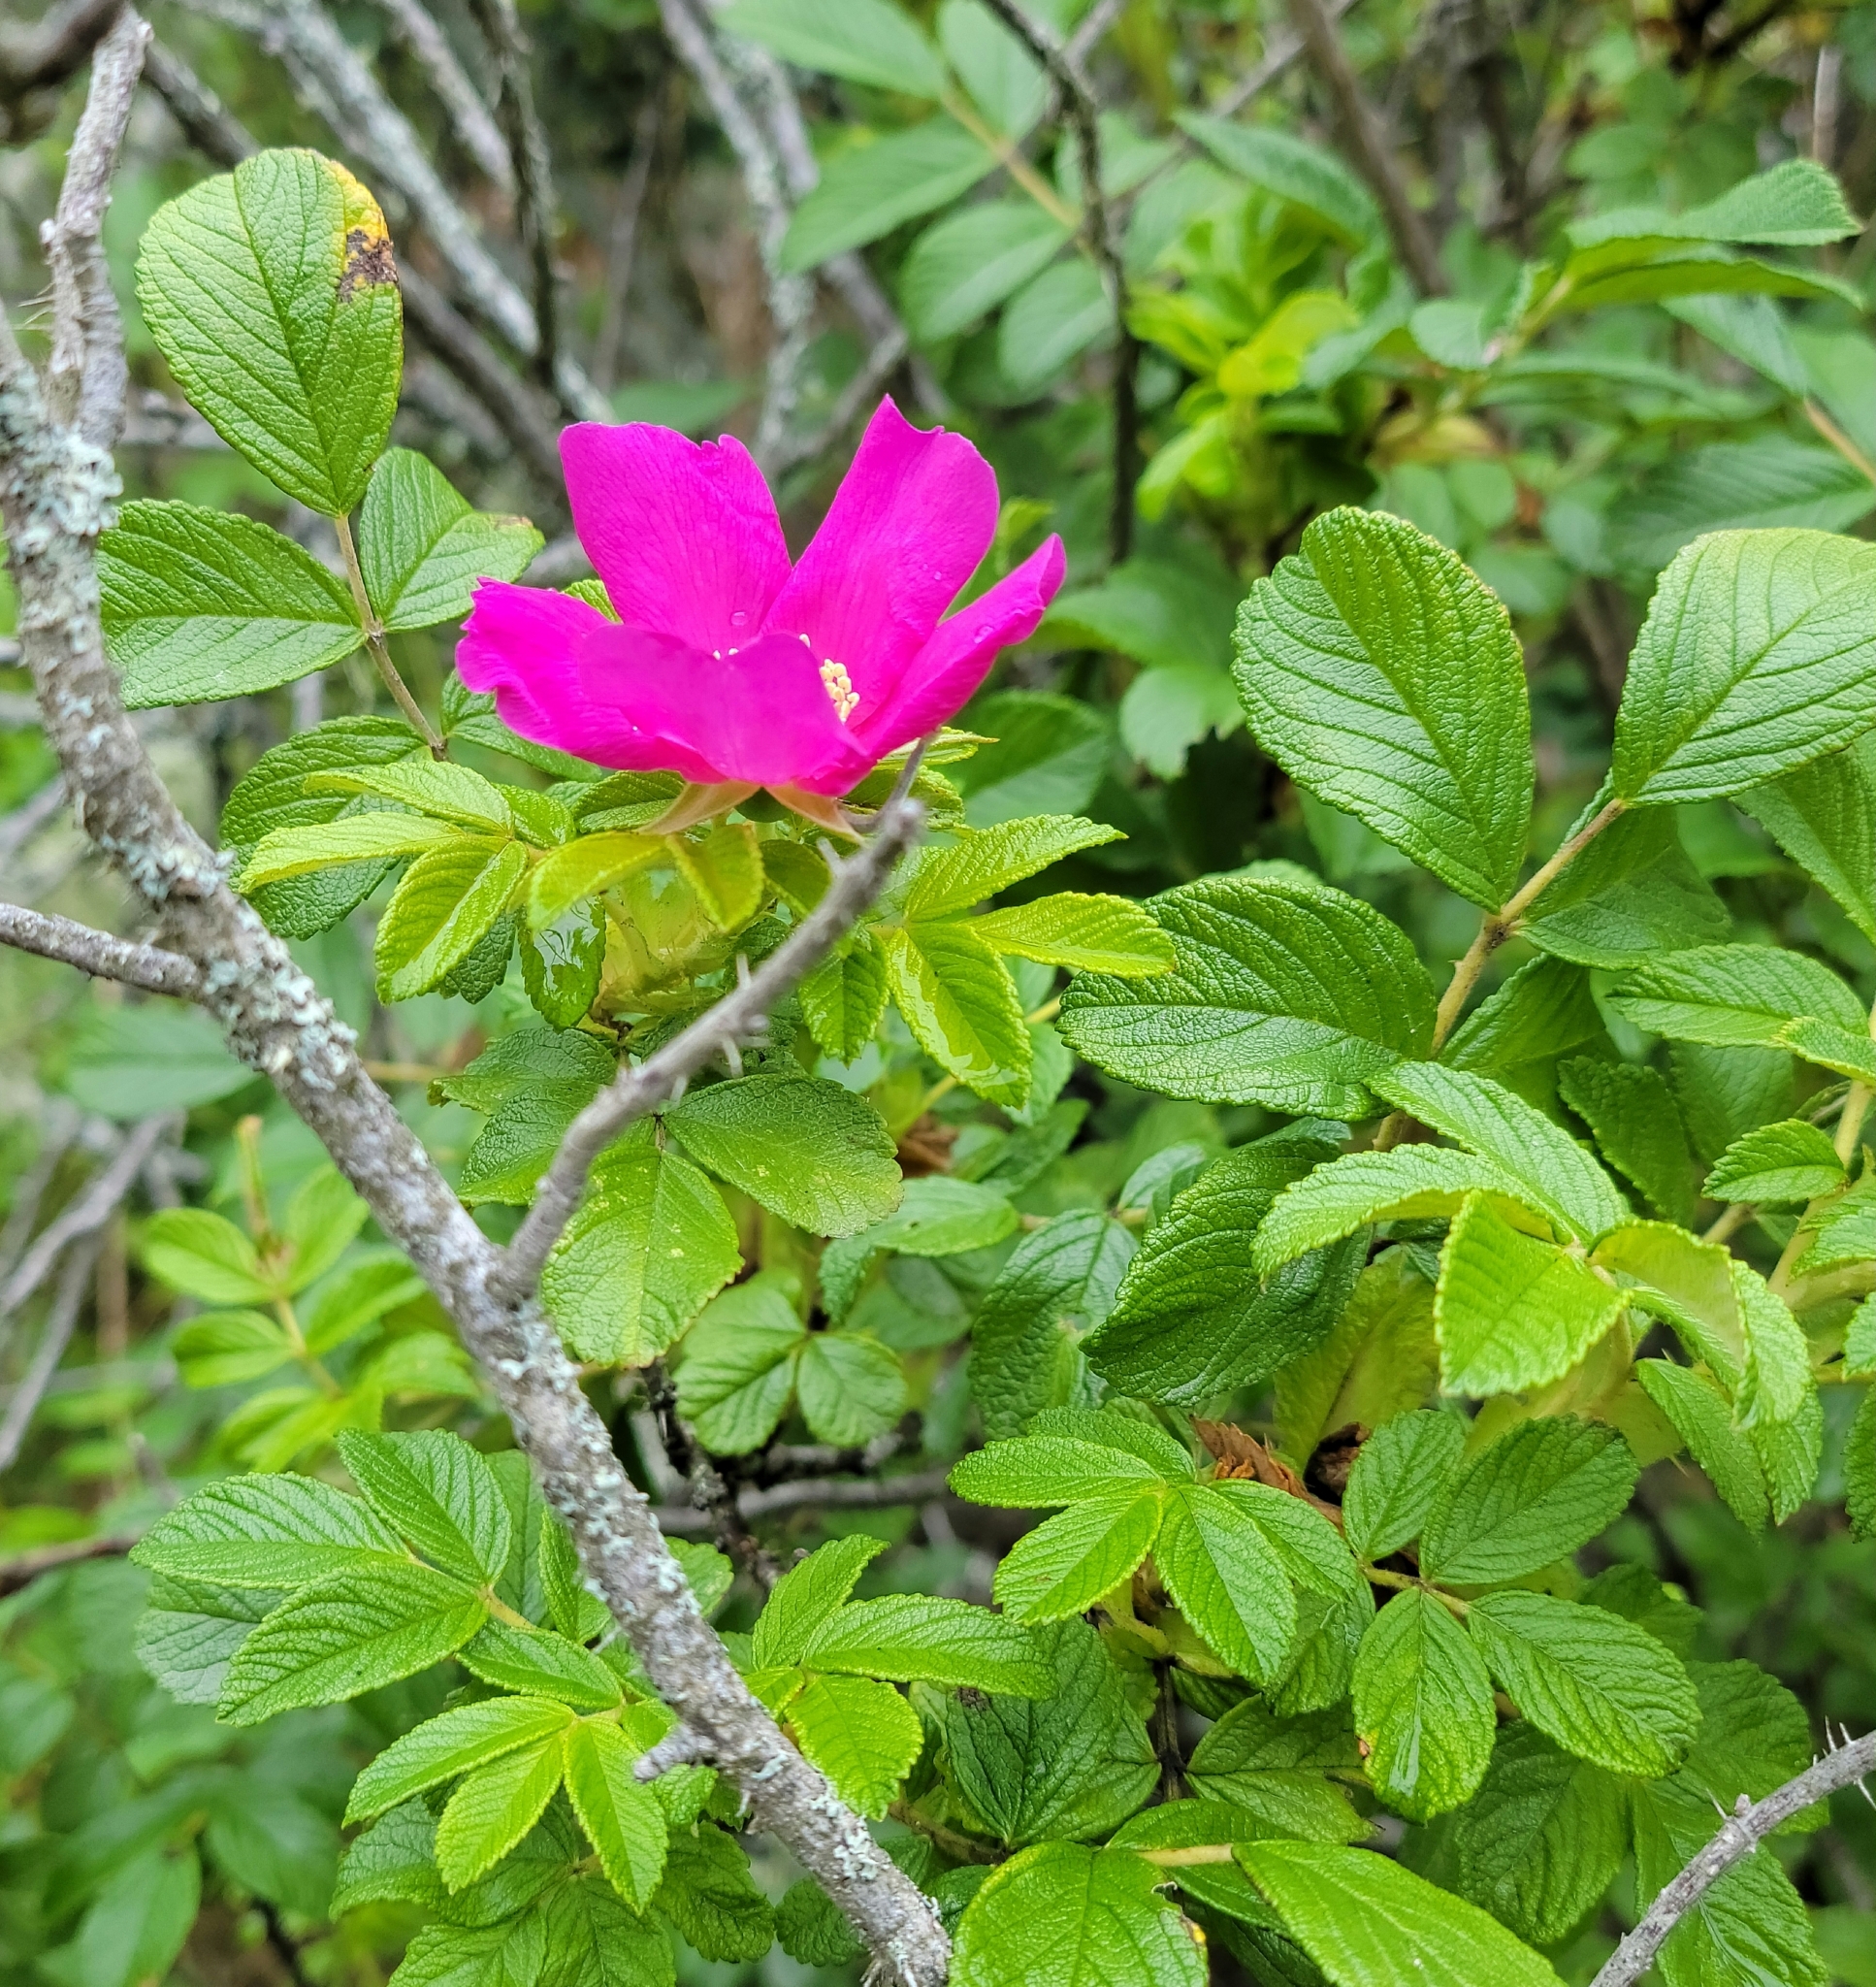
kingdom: Plantae
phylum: Tracheophyta
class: Magnoliopsida
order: Rosales
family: Rosaceae
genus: Rosa
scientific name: Rosa rugosa
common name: Japanese rose
